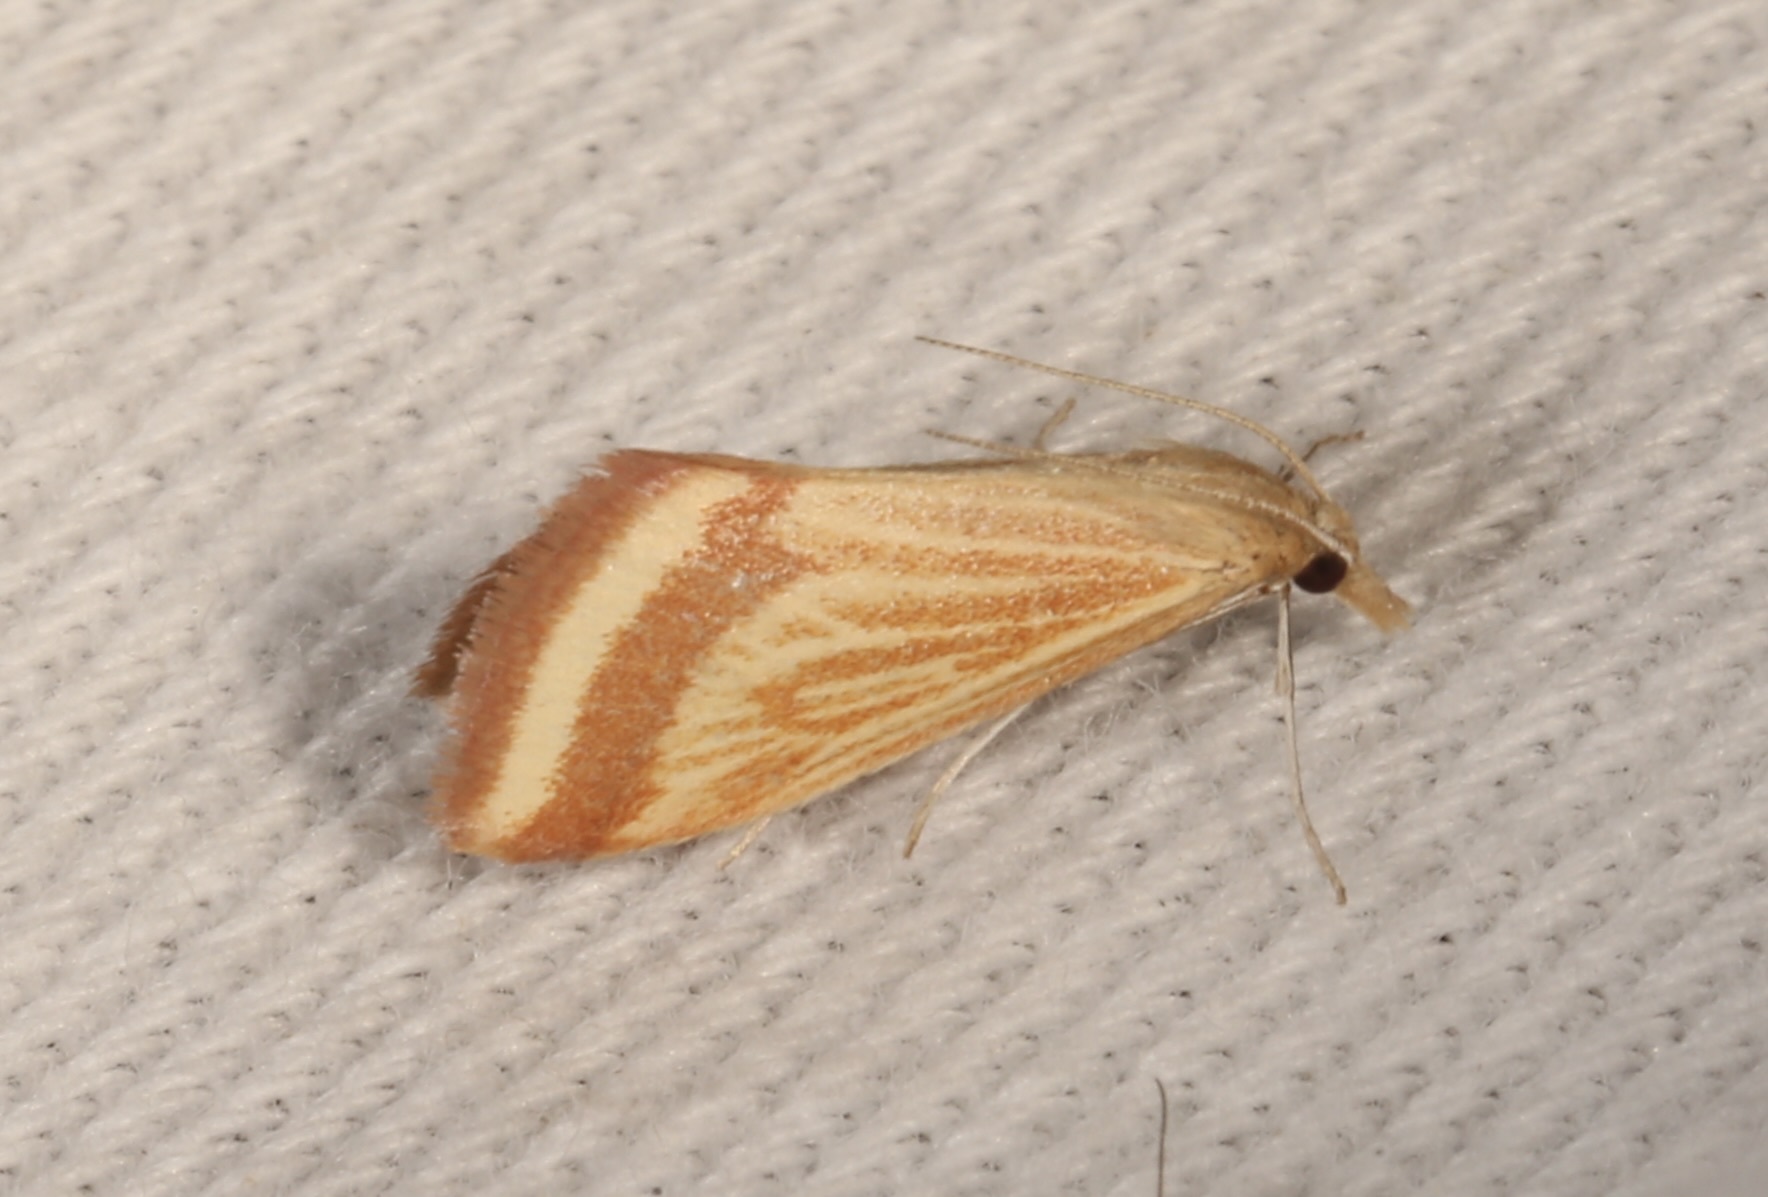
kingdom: Animalia
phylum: Arthropoda
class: Insecta
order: Lepidoptera
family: Crambidae
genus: Microtheoris
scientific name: Microtheoris ophionalis
